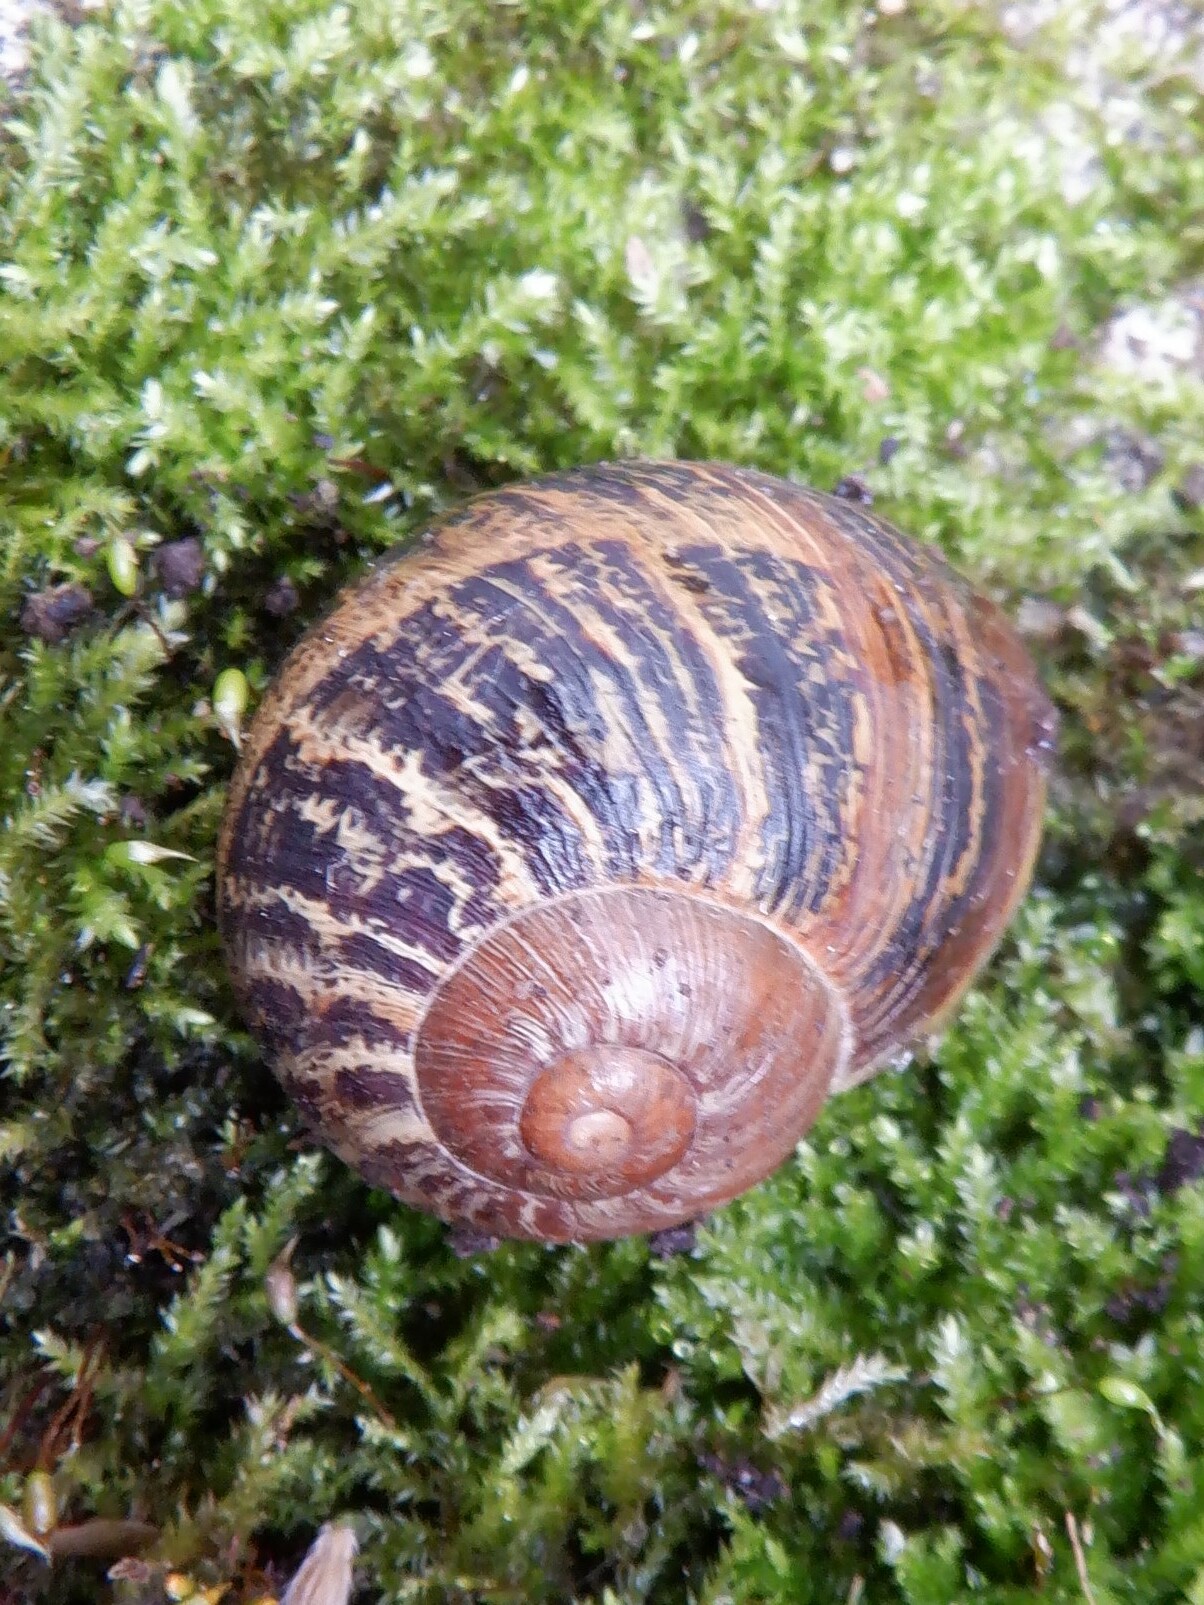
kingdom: Animalia
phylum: Mollusca
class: Gastropoda
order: Stylommatophora
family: Helicidae
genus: Cornu
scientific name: Cornu aspersum
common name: Brown garden snail
